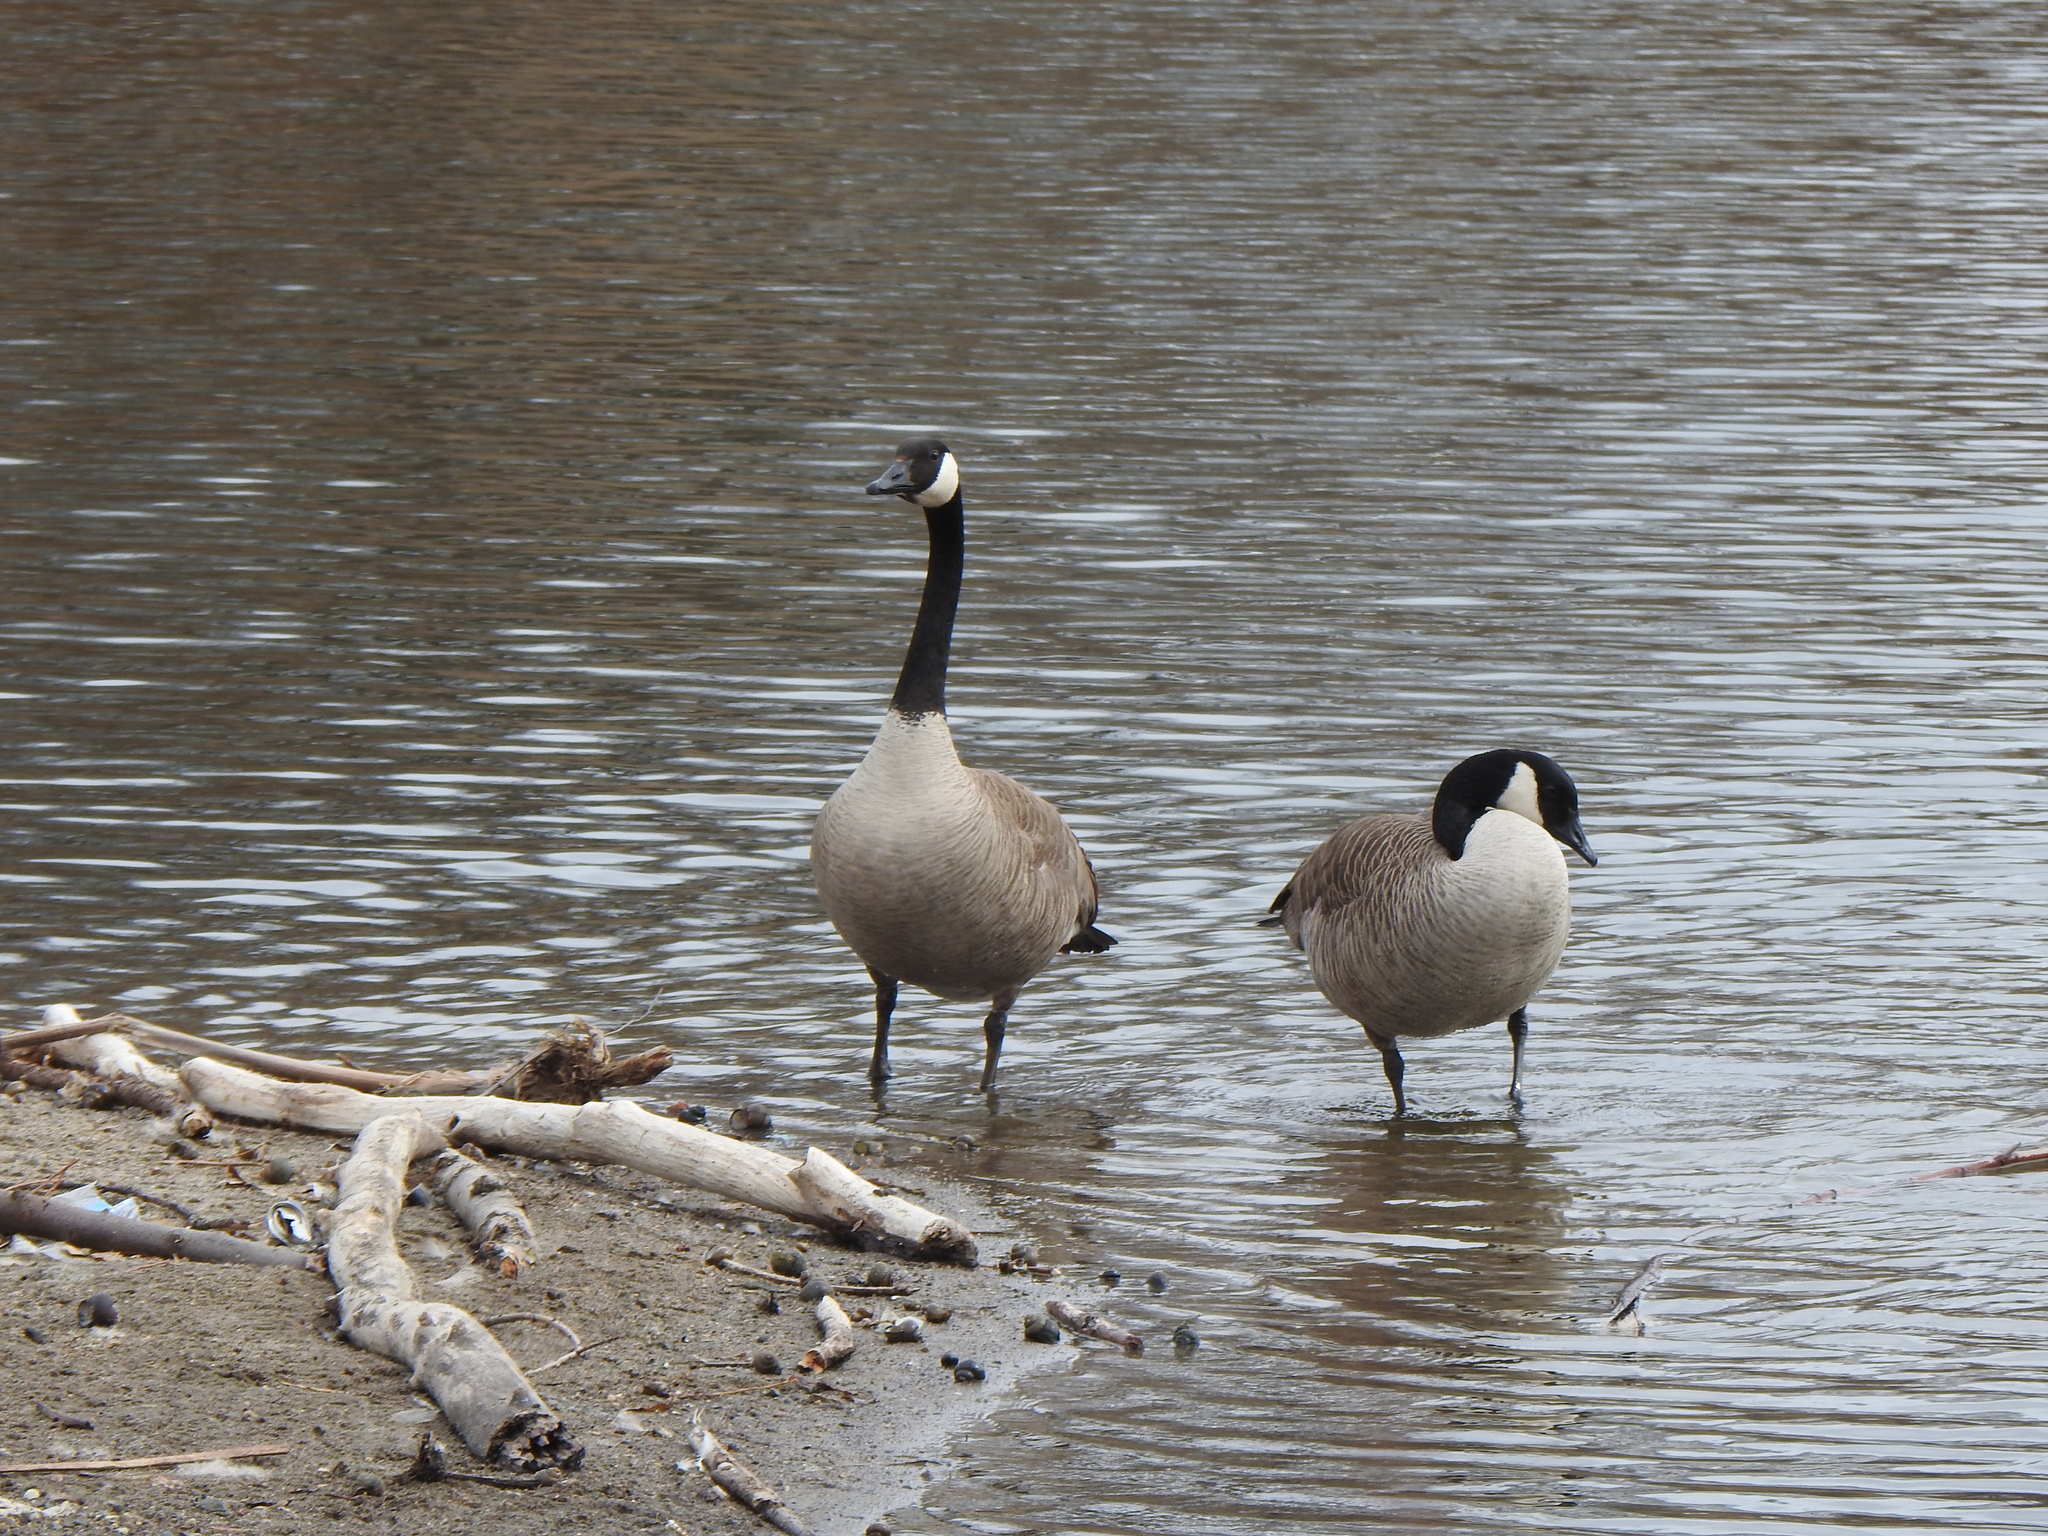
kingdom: Animalia
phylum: Chordata
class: Aves
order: Anseriformes
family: Anatidae
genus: Branta
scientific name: Branta canadensis
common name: Canada goose
